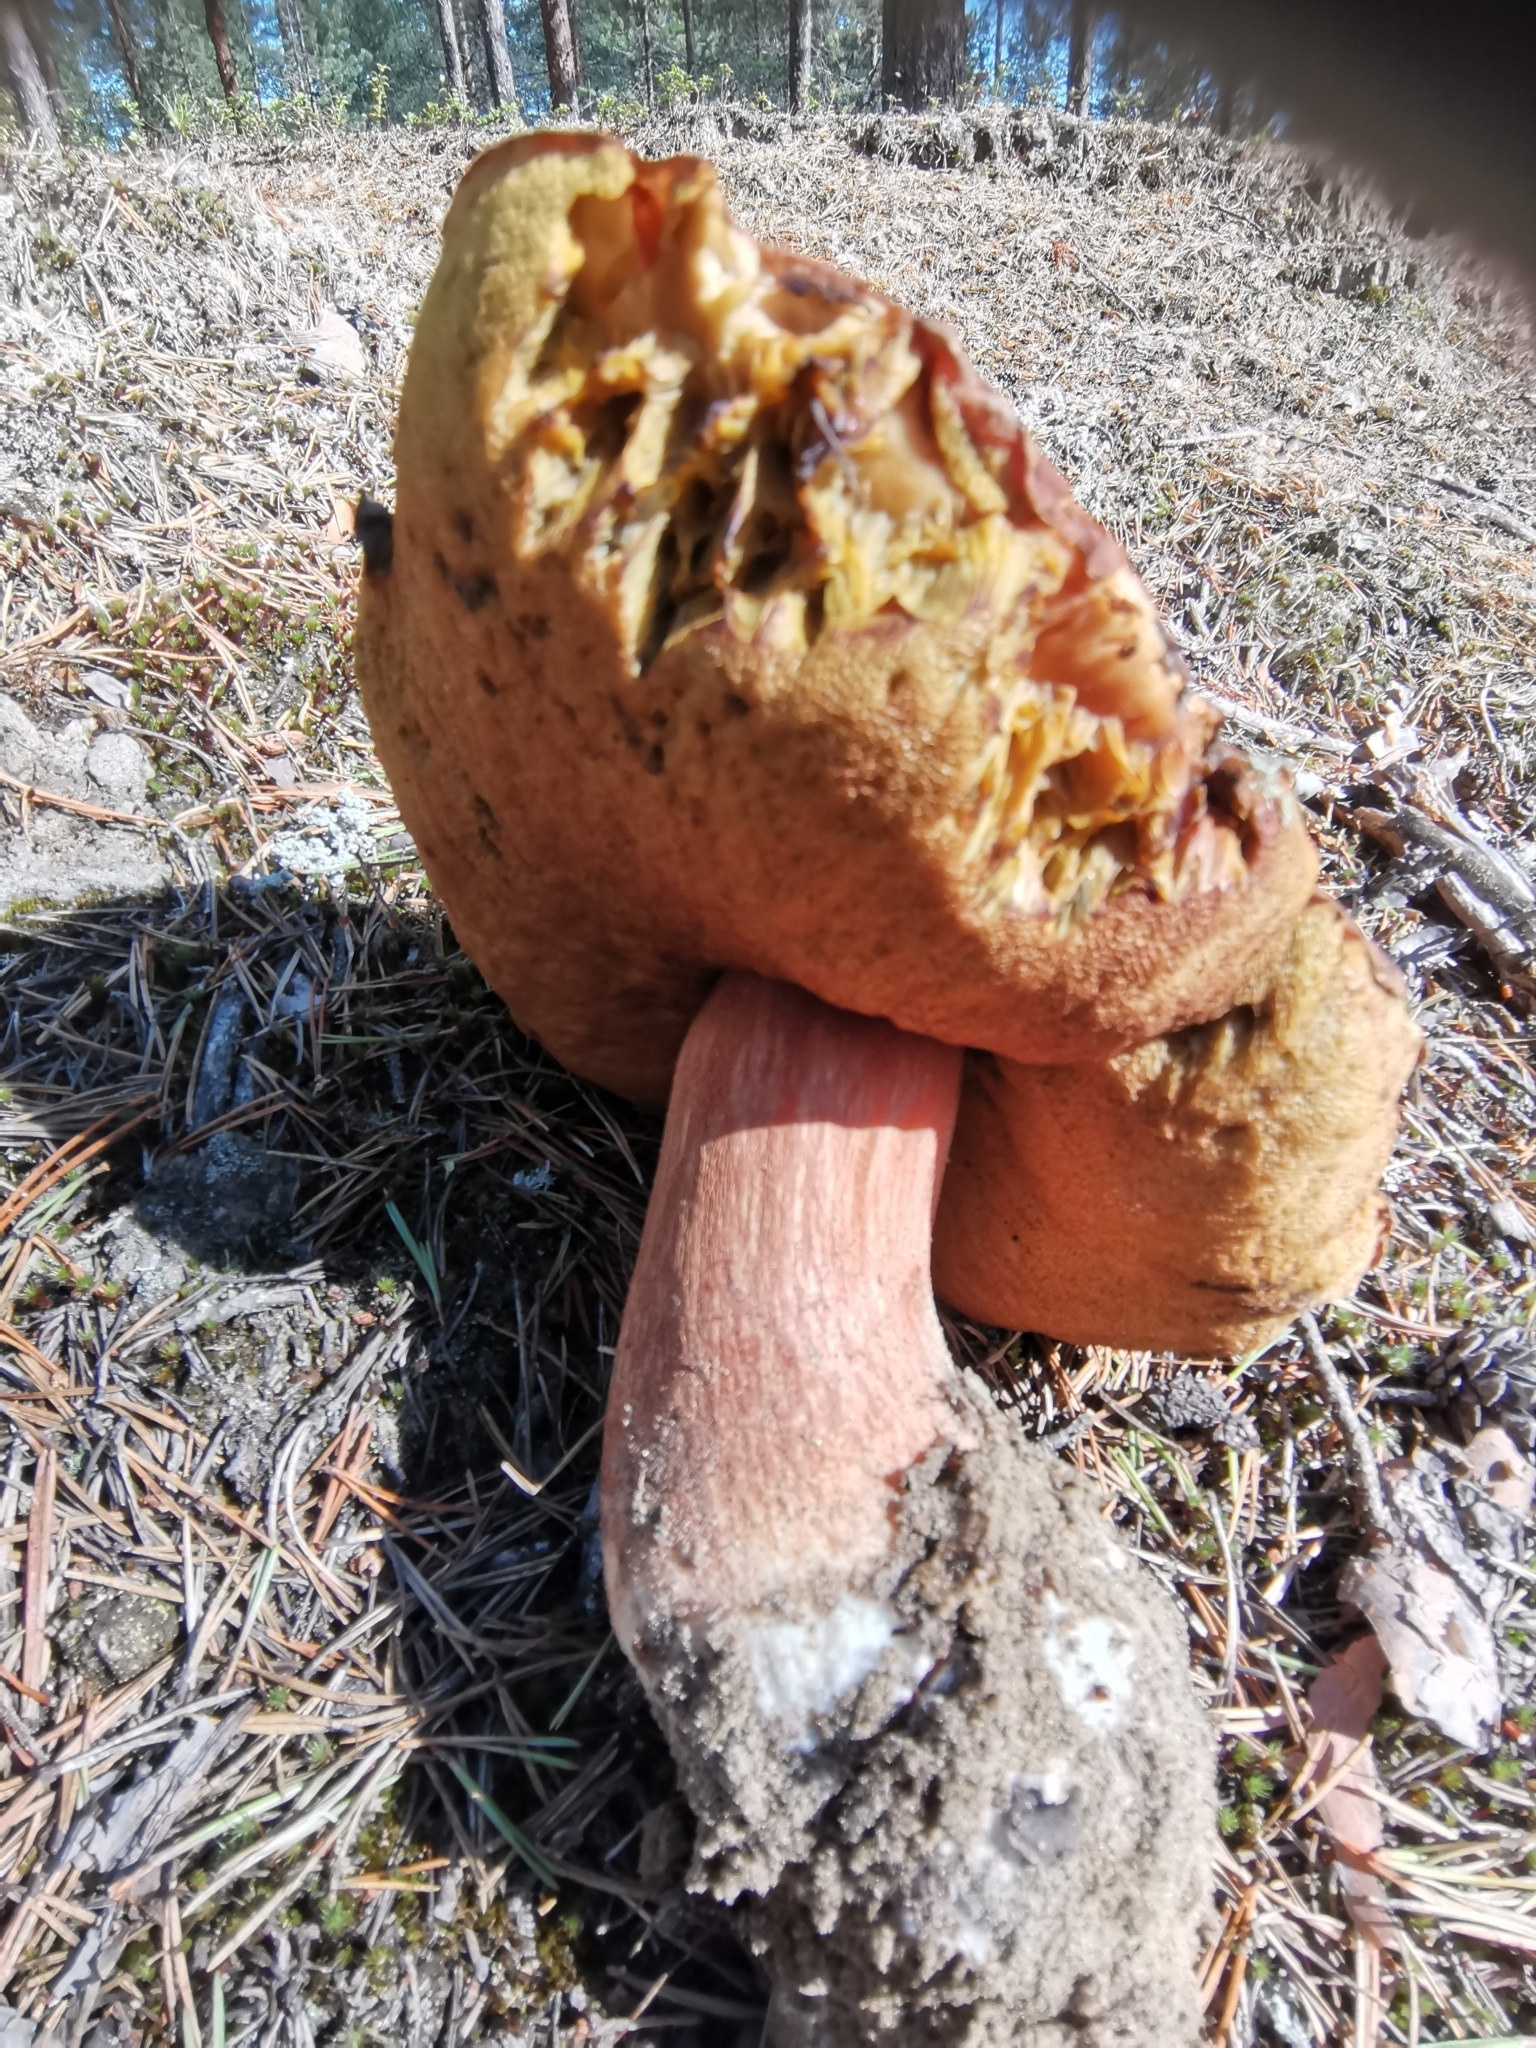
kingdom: Fungi
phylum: Basidiomycota
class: Agaricomycetes
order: Boletales
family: Boletaceae
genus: Boletus
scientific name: Boletus pinophilus
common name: Pine bolete
